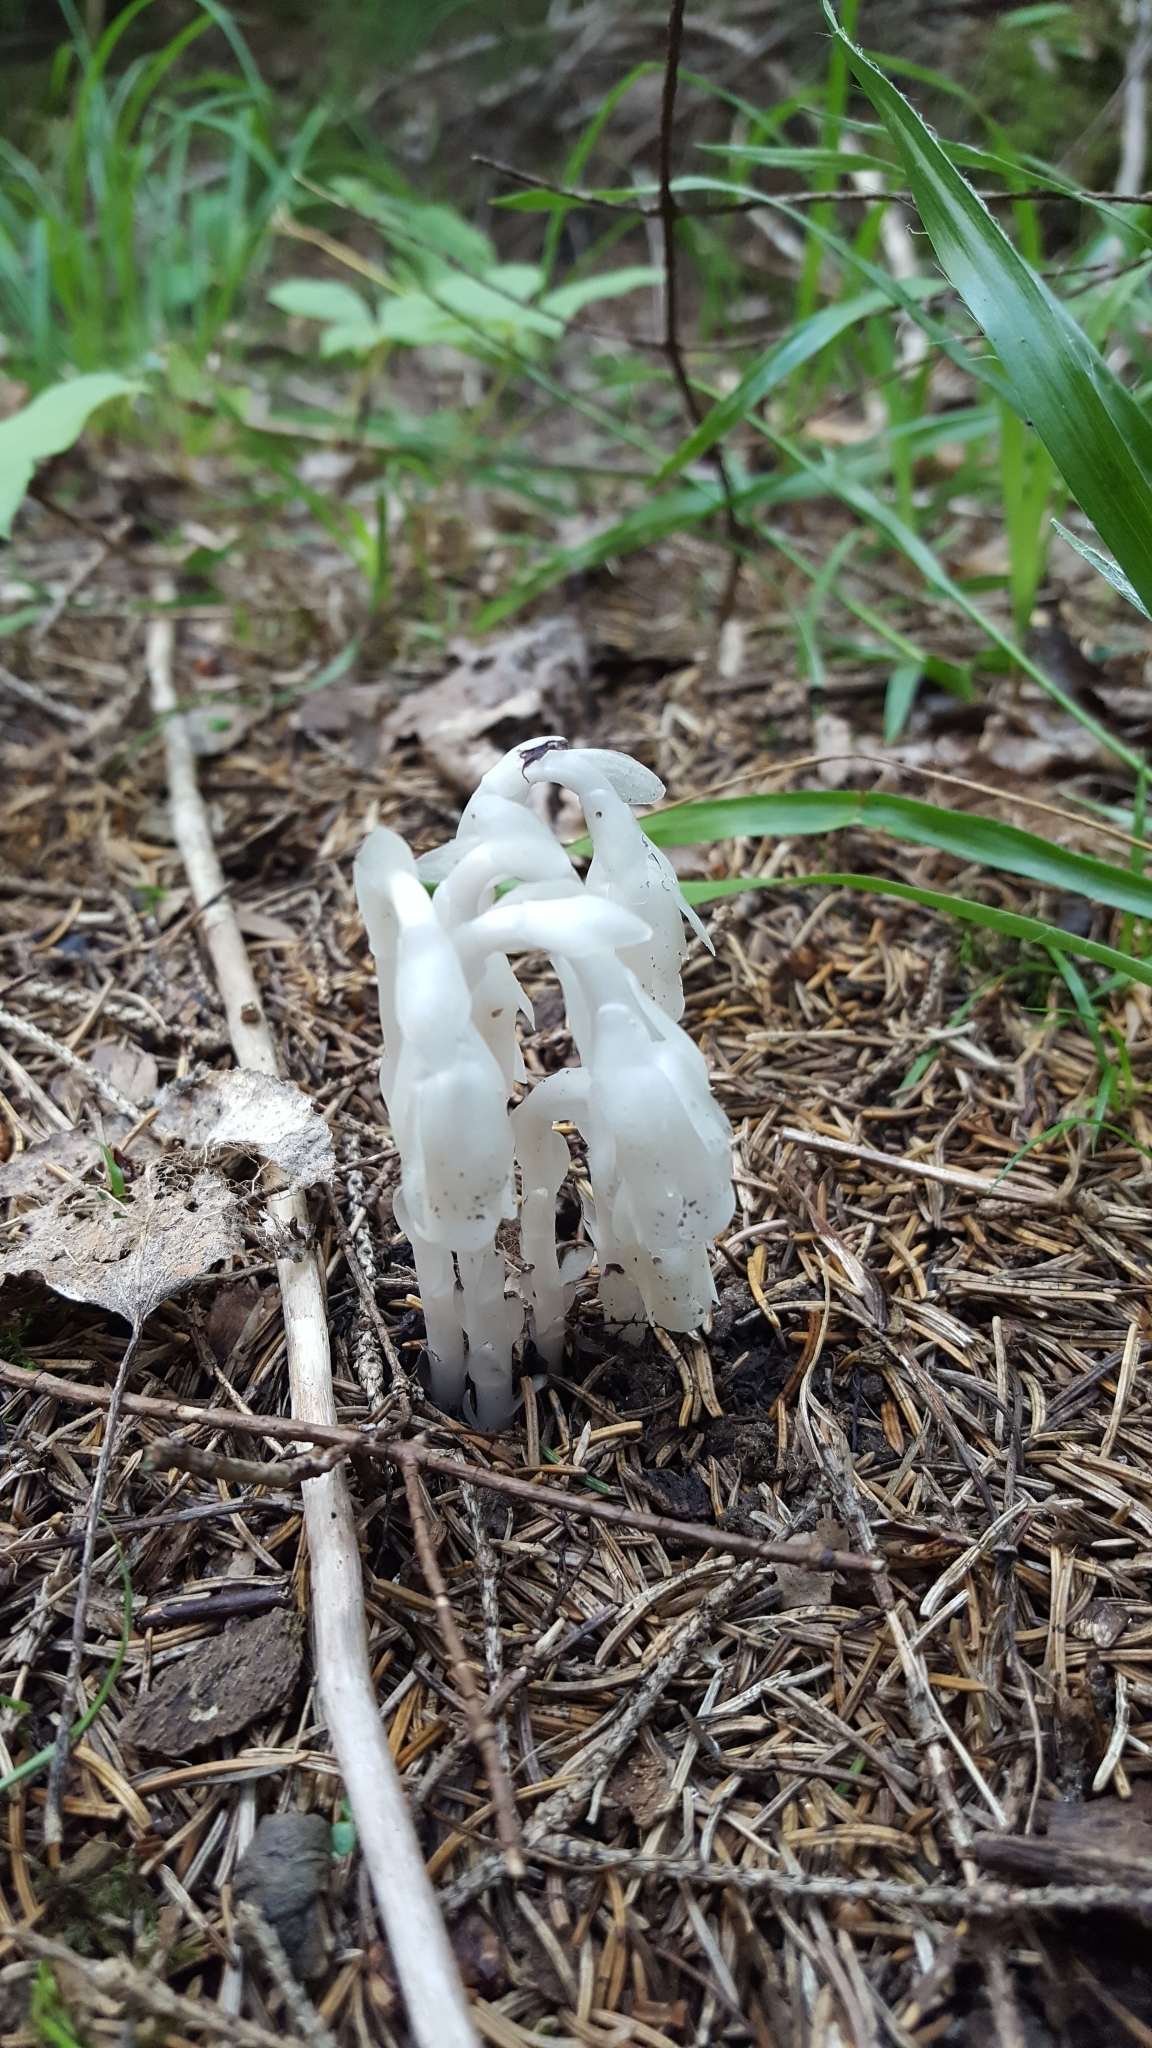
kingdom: Plantae
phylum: Tracheophyta
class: Magnoliopsida
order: Ericales
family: Ericaceae
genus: Monotropa
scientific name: Monotropa uniflora
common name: Convulsion root
